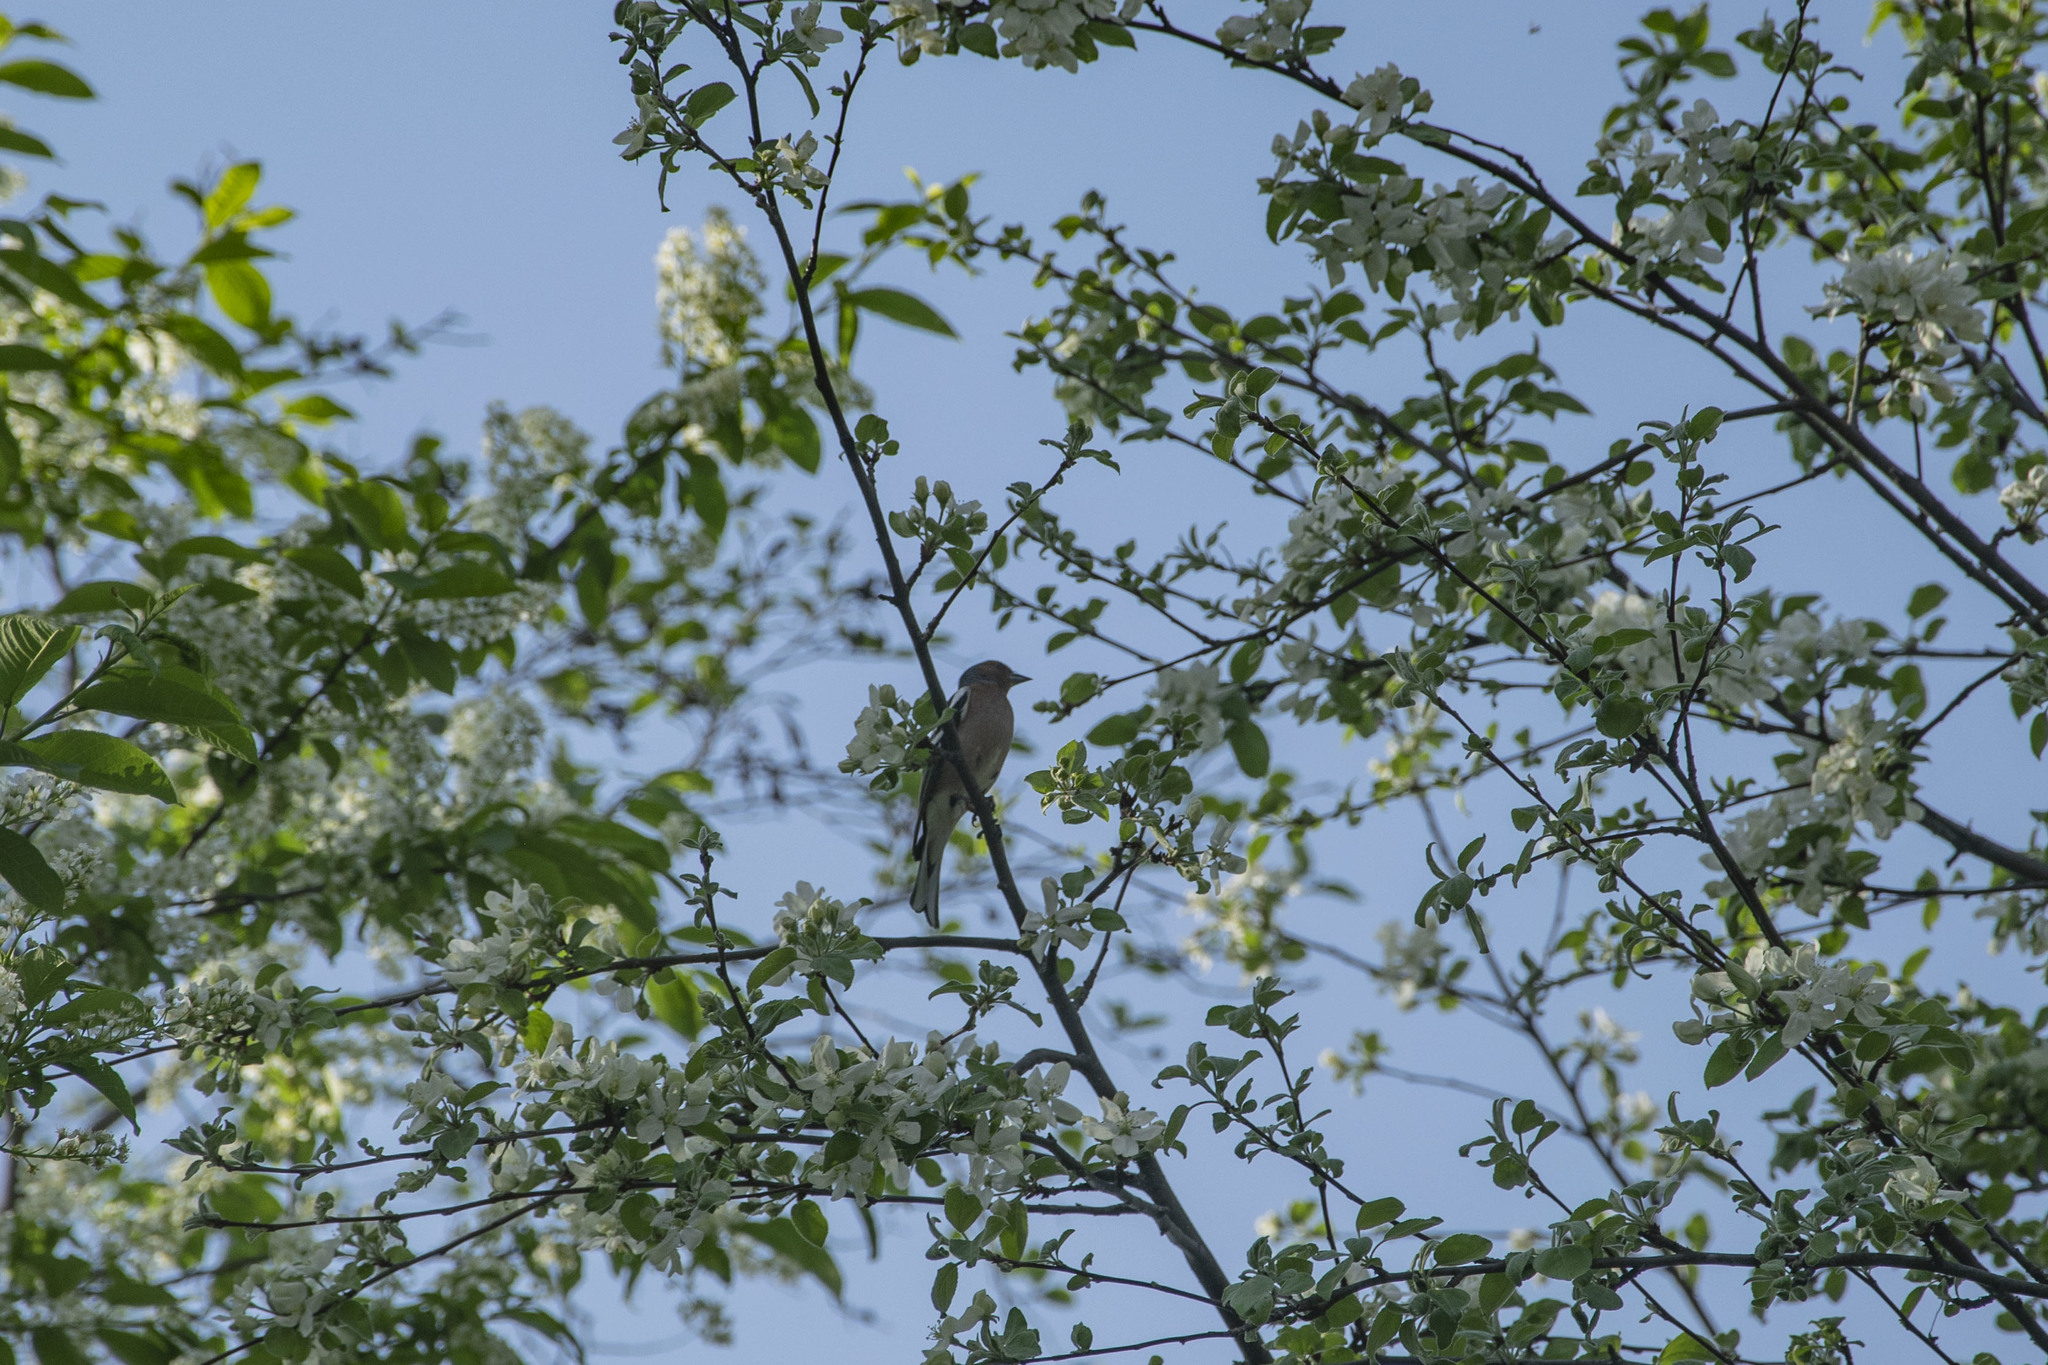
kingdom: Animalia
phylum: Chordata
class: Aves
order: Passeriformes
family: Fringillidae
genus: Fringilla
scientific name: Fringilla coelebs
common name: Common chaffinch
